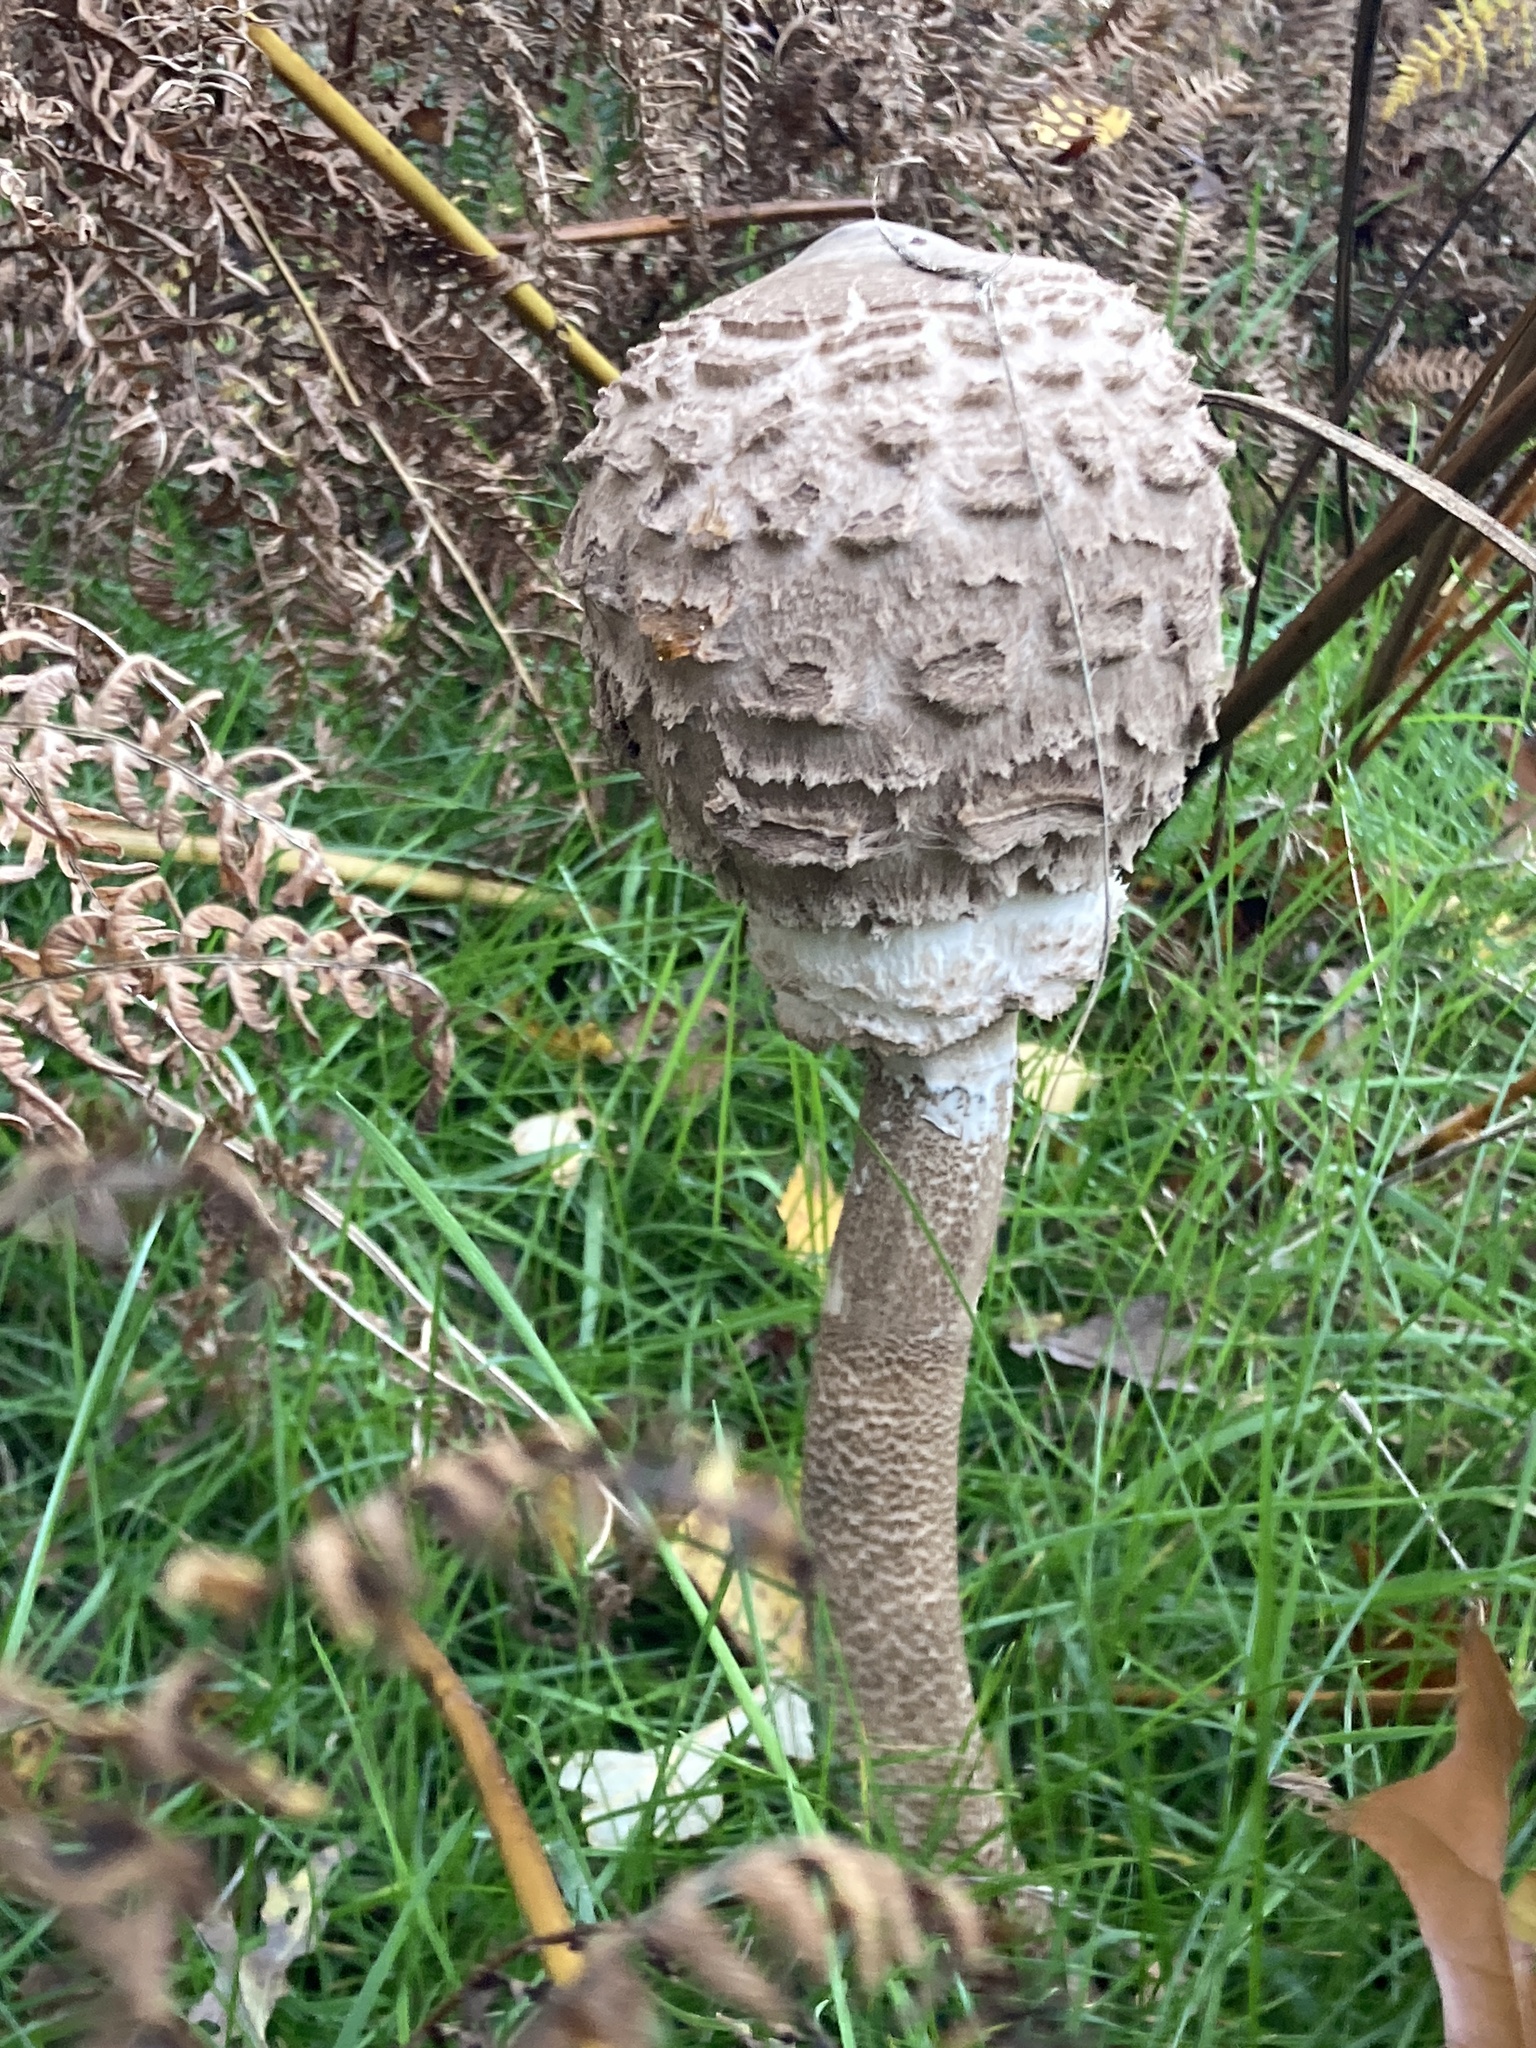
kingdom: Fungi
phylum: Basidiomycota
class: Agaricomycetes
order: Agaricales
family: Agaricaceae
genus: Macrolepiota
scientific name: Macrolepiota procera
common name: Parasol
